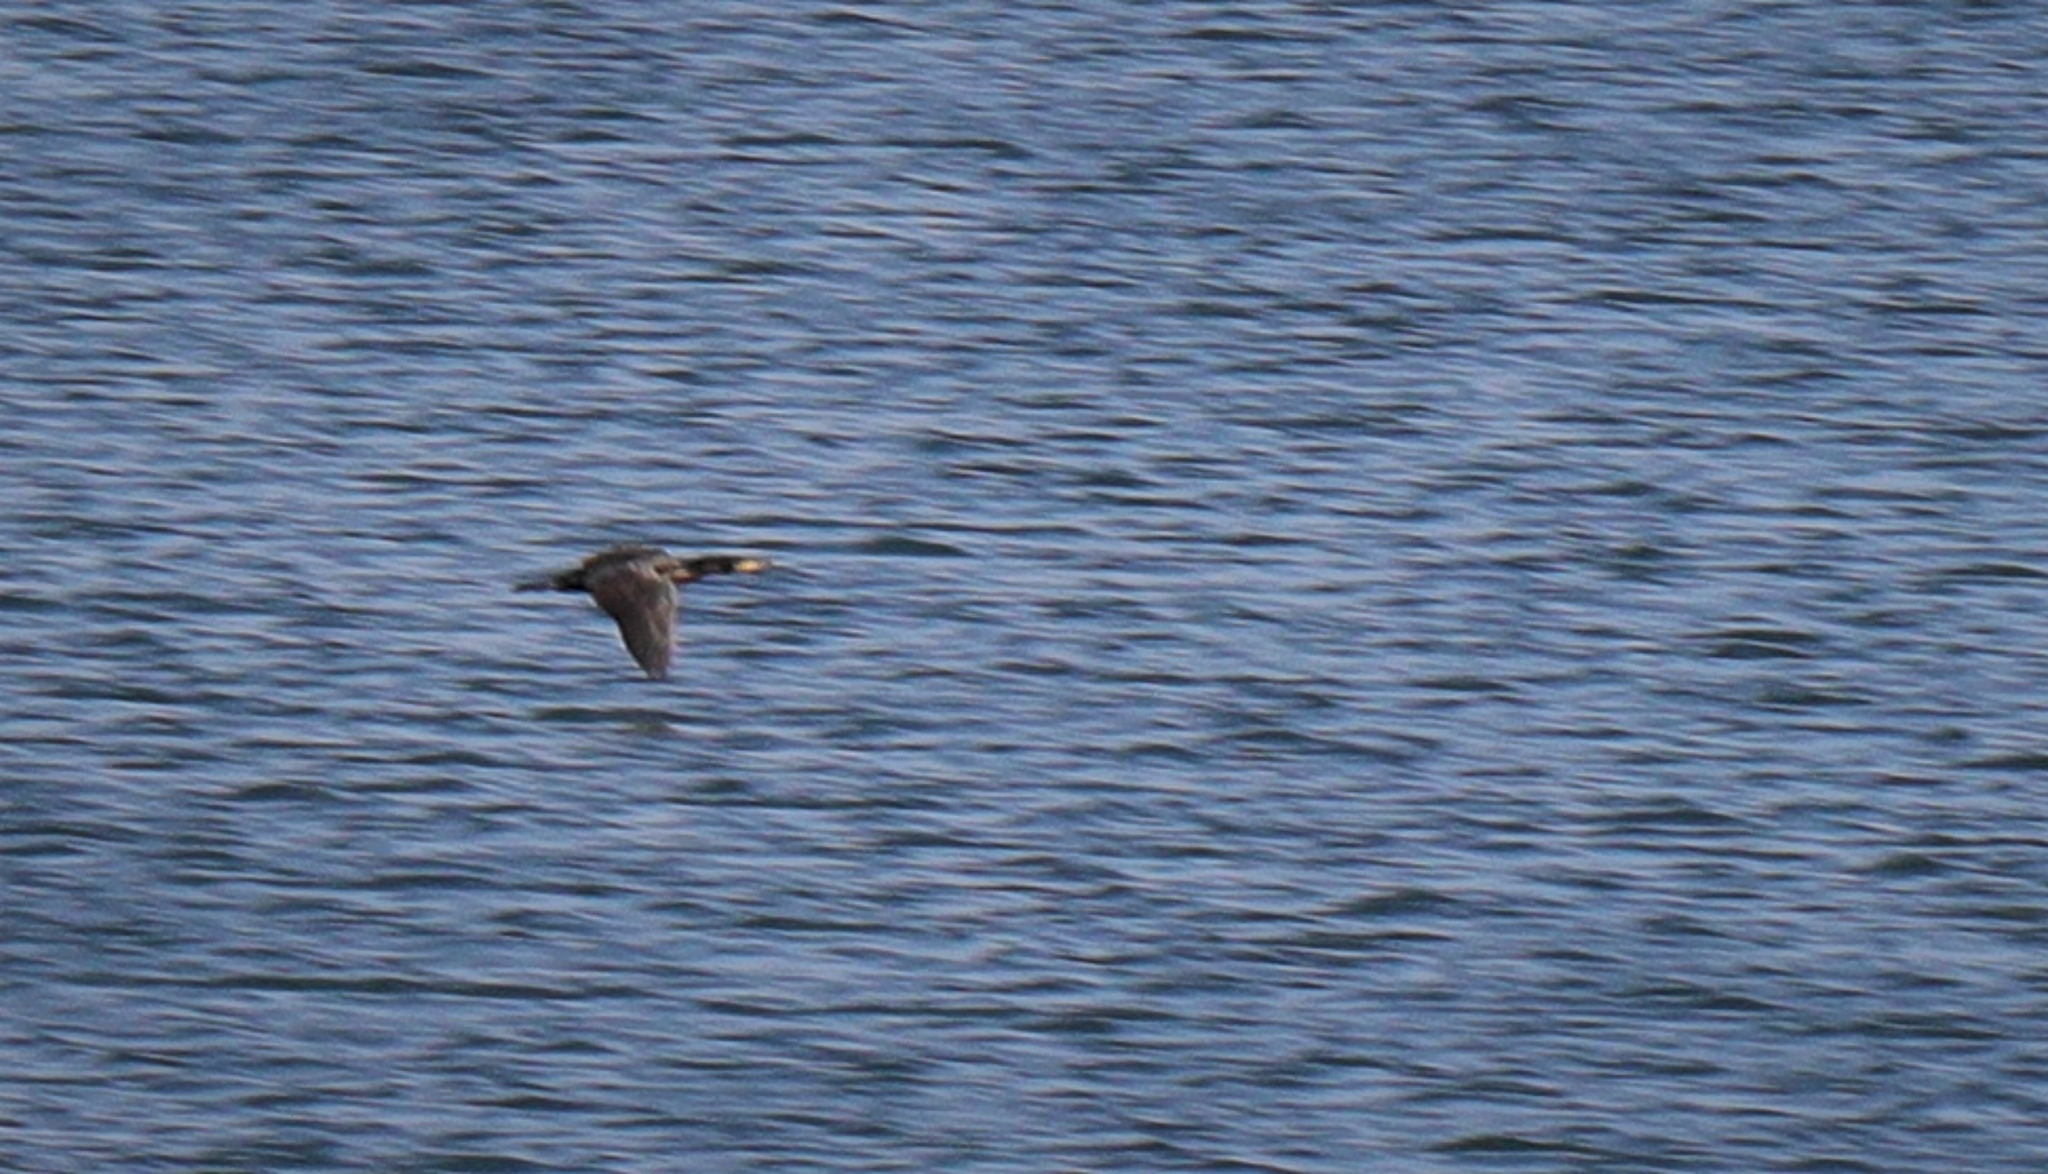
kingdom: Animalia
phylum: Chordata
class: Aves
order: Suliformes
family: Phalacrocoracidae
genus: Phalacrocorax
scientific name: Phalacrocorax carbo
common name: Great cormorant
